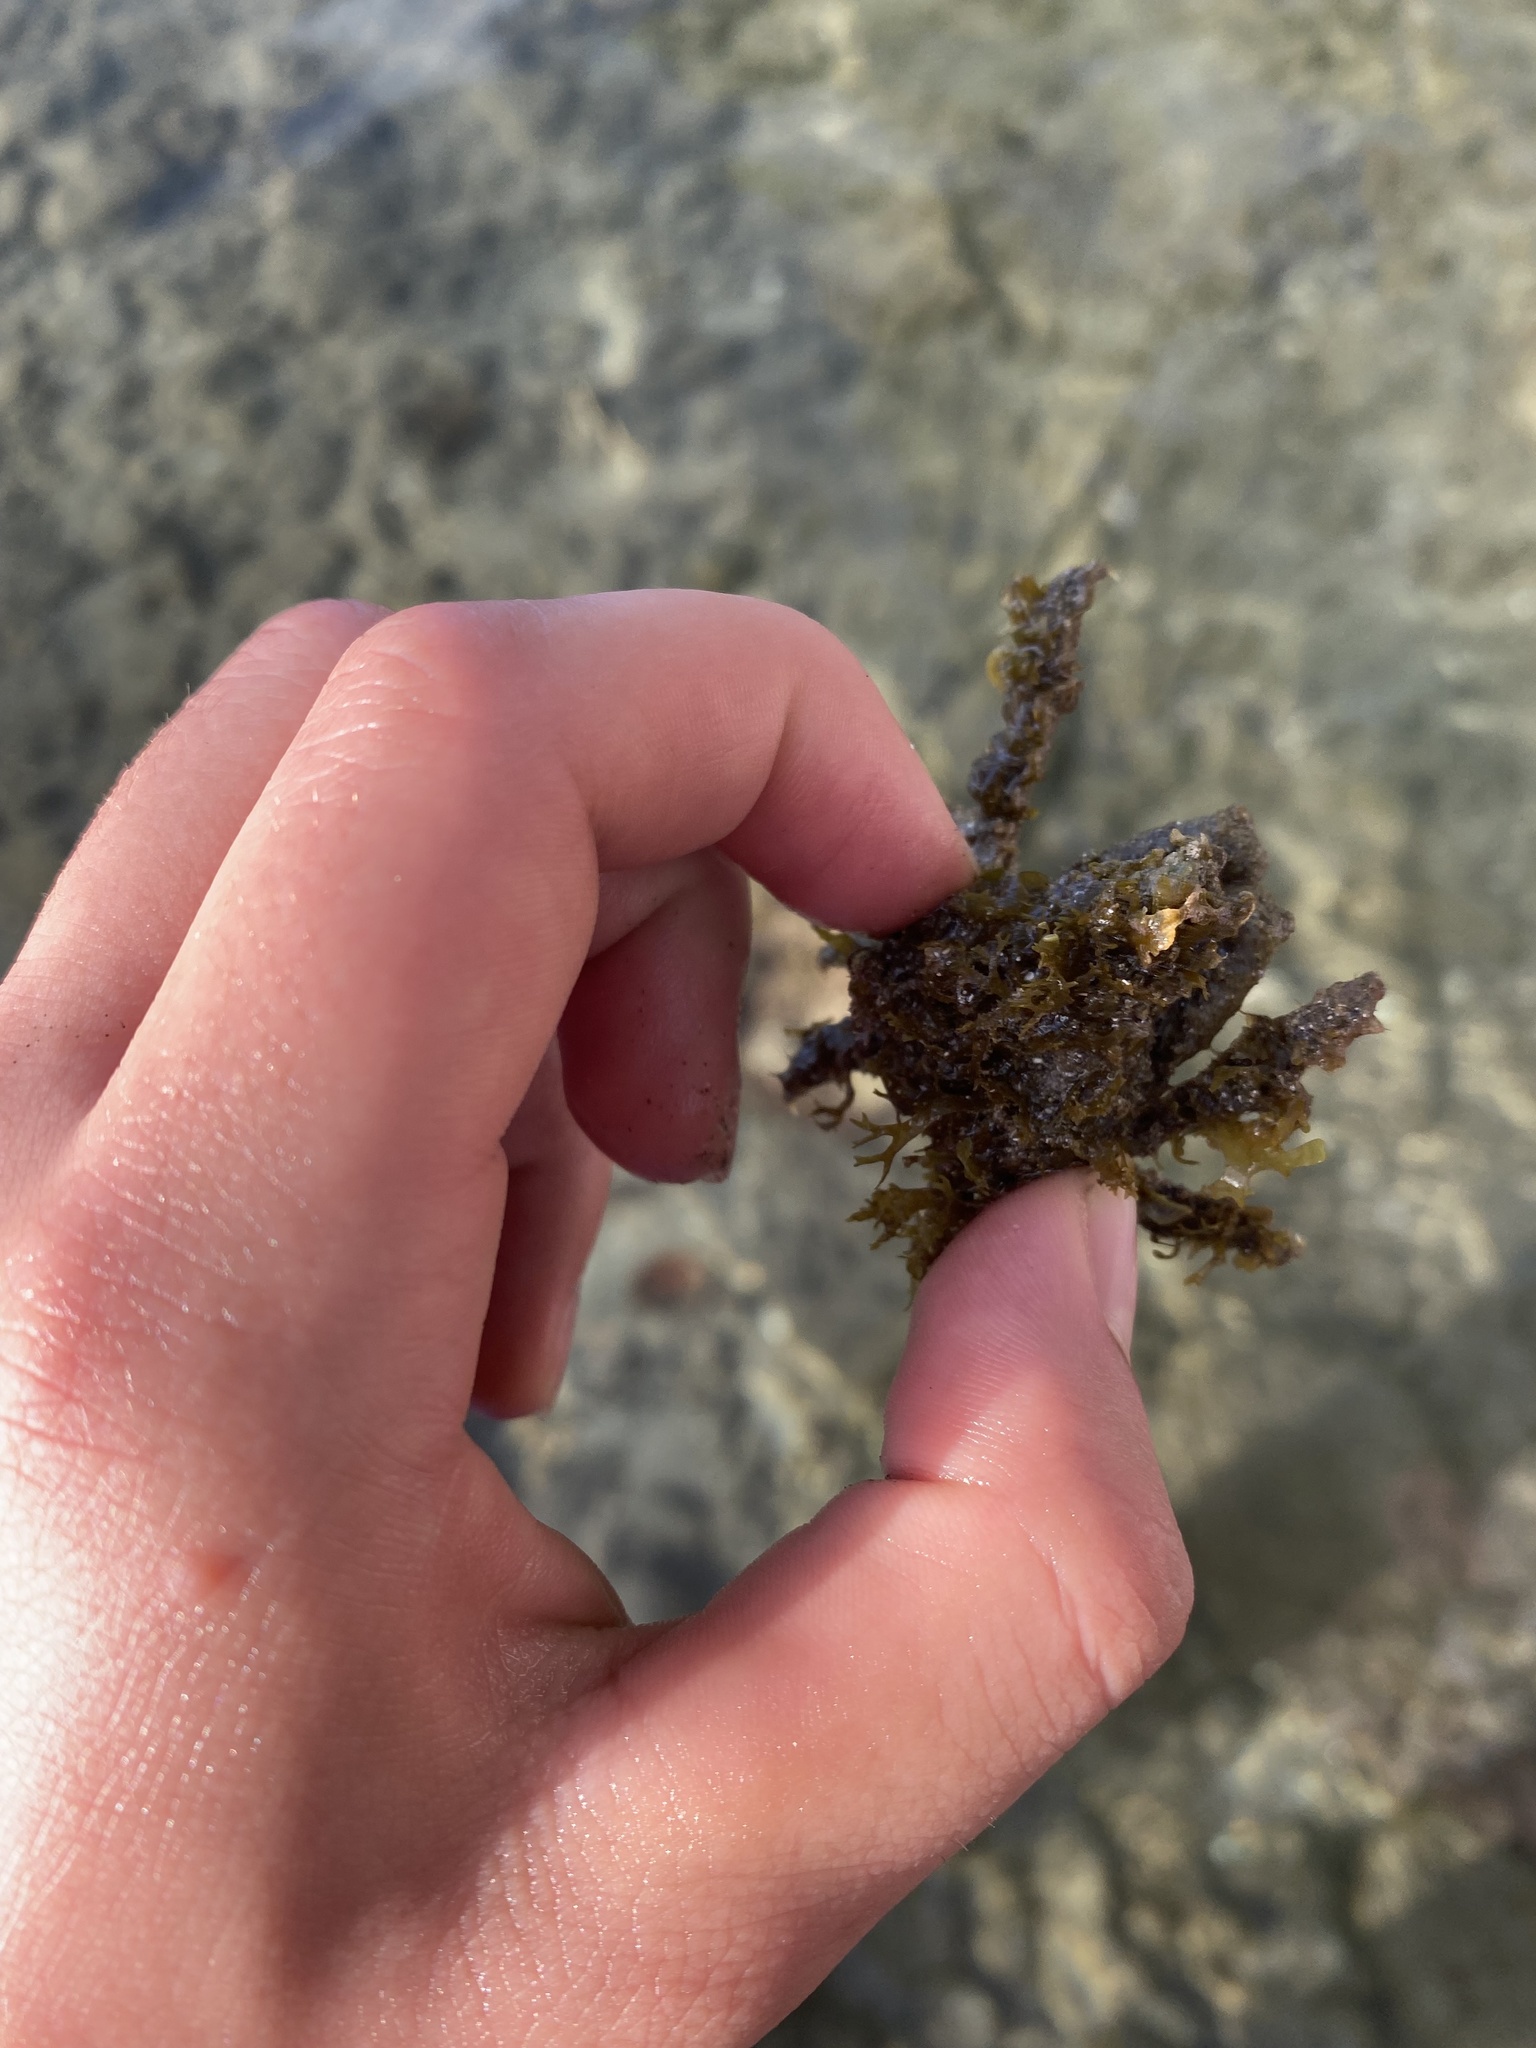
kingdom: Animalia
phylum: Arthropoda
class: Malacostraca
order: Decapoda
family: Epialtidae
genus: Stenocionops
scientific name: Stenocionops furcatus
